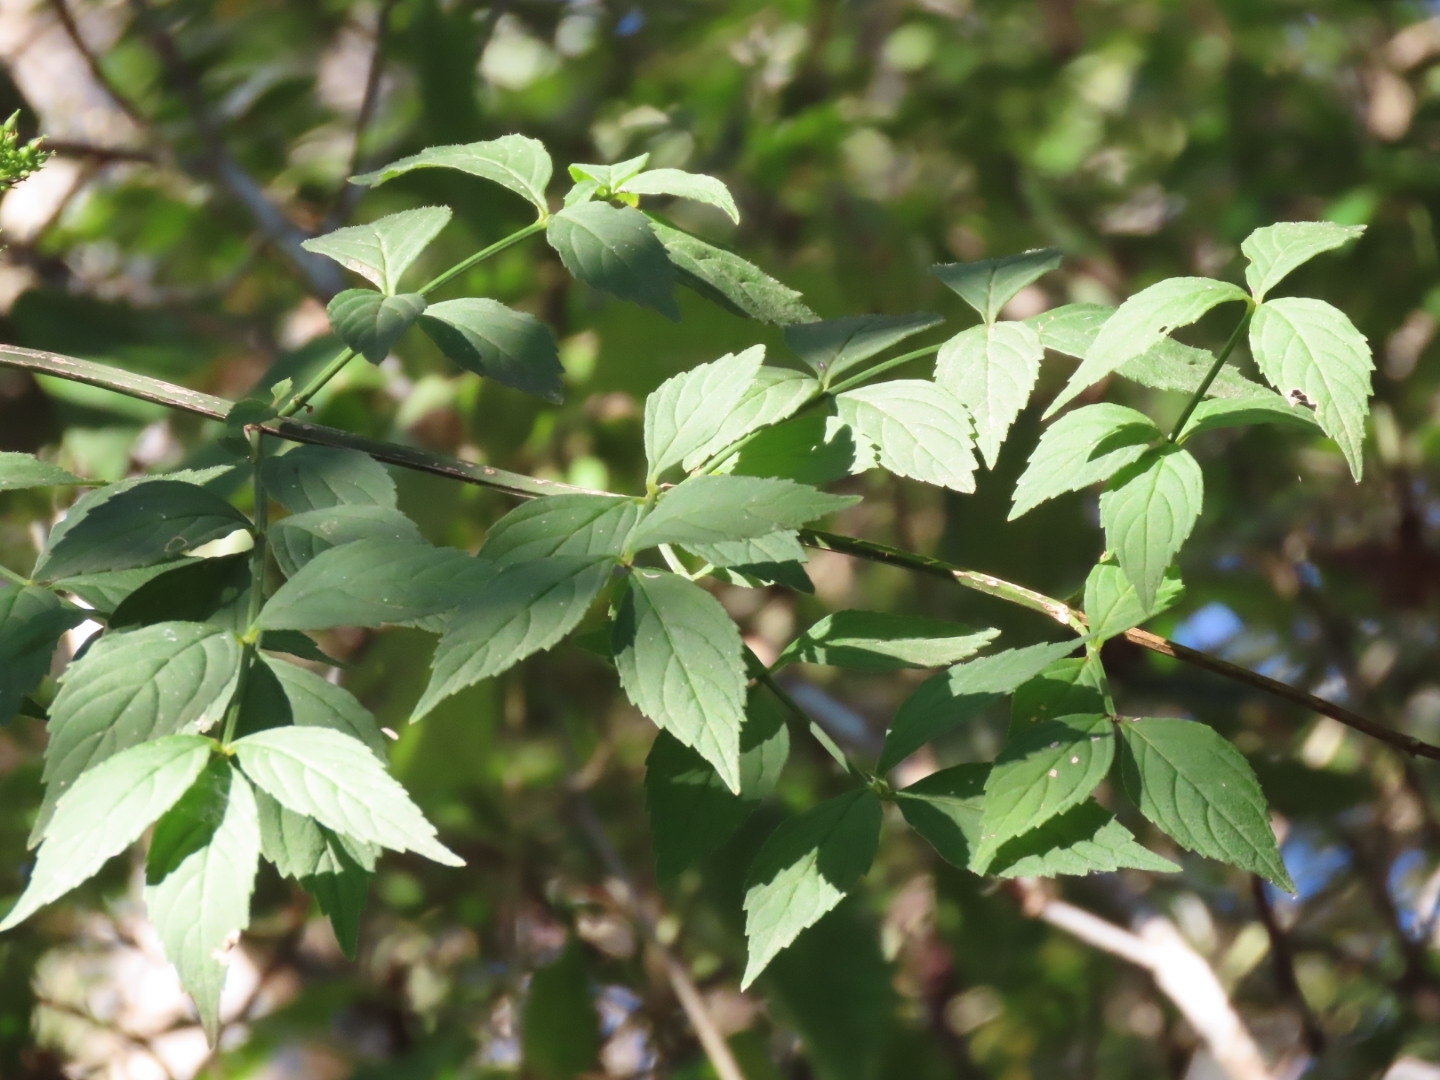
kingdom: Plantae
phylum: Tracheophyta
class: Magnoliopsida
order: Lamiales
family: Plantaginaceae
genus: Russelia
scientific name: Russelia verticillata
